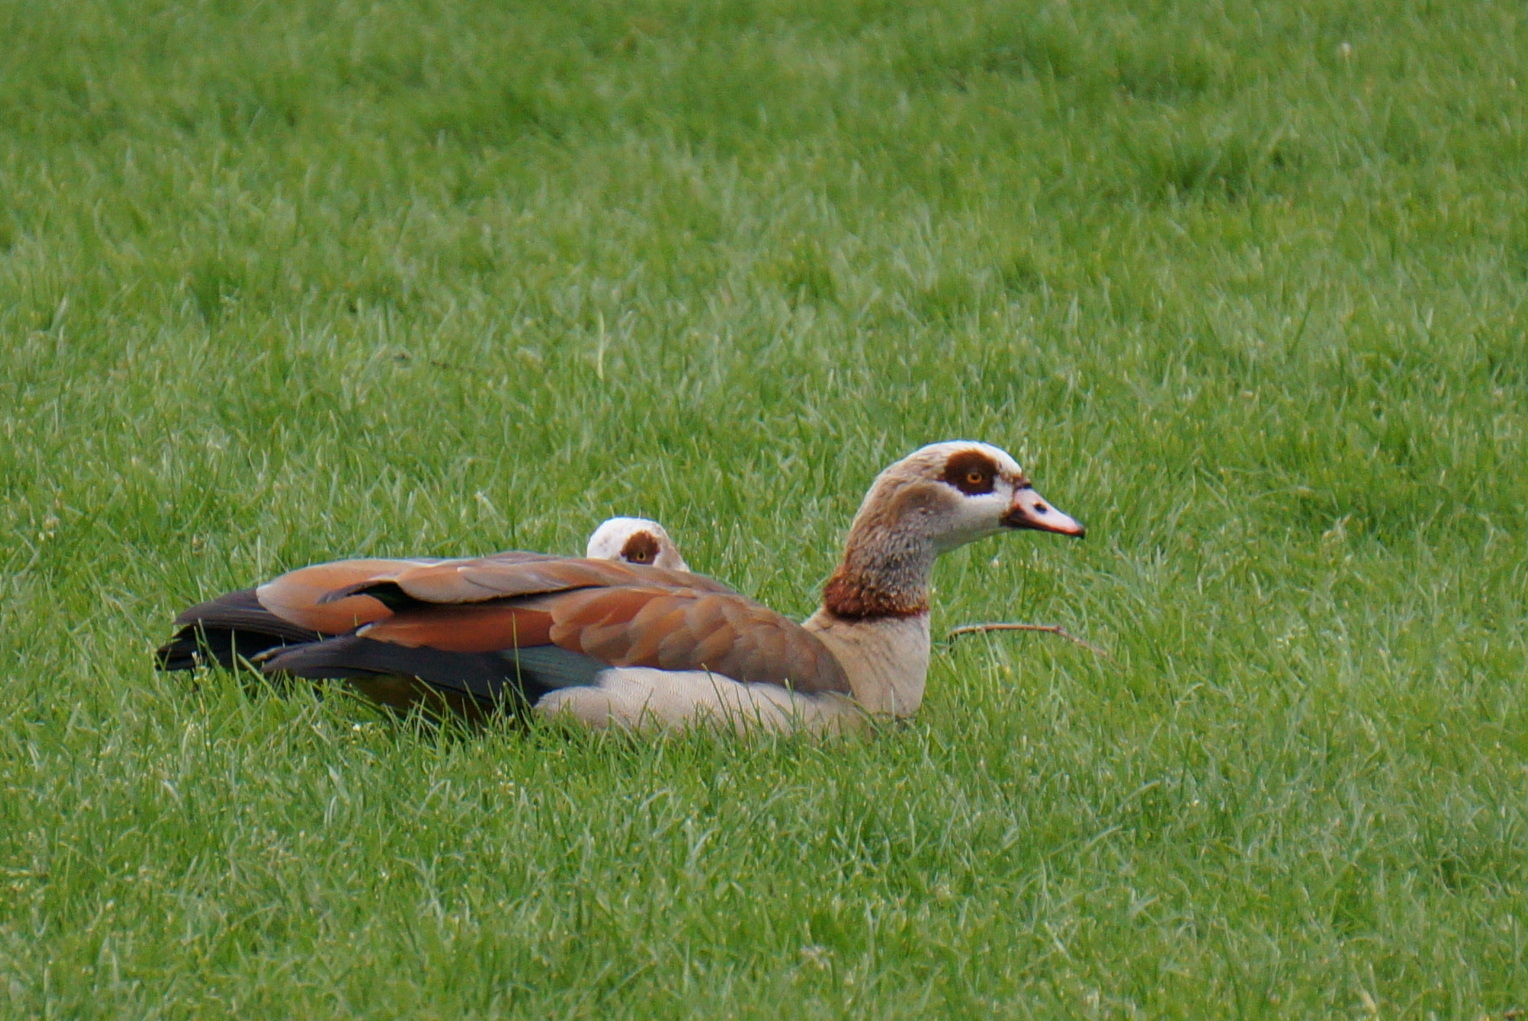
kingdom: Animalia
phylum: Chordata
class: Aves
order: Anseriformes
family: Anatidae
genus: Alopochen
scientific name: Alopochen aegyptiaca
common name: Egyptian goose
